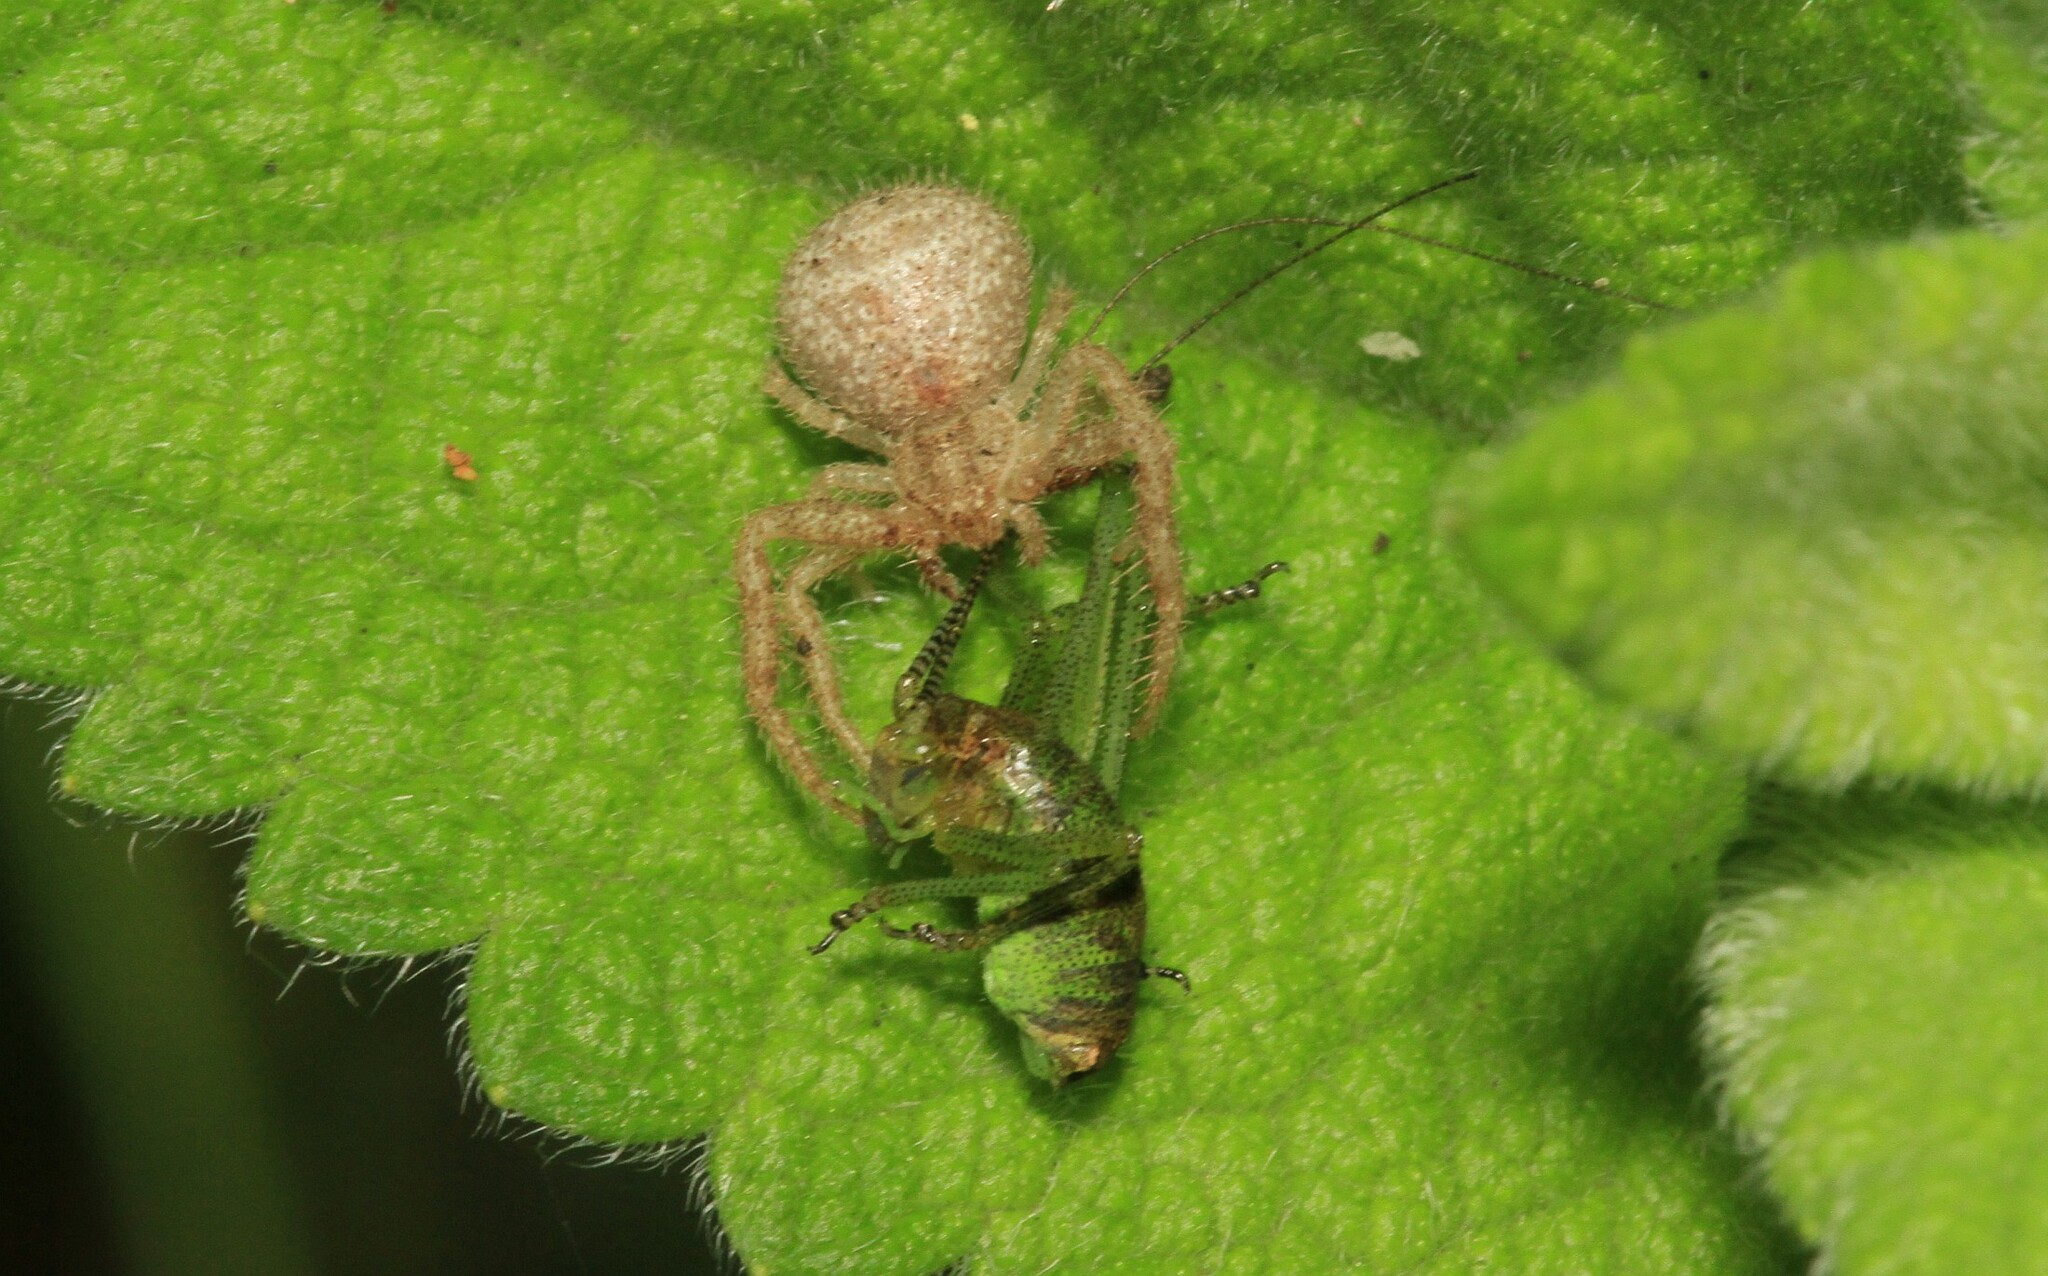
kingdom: Animalia
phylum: Arthropoda
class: Arachnida
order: Araneae
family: Thomisidae
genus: Heriaeus
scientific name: Heriaeus
